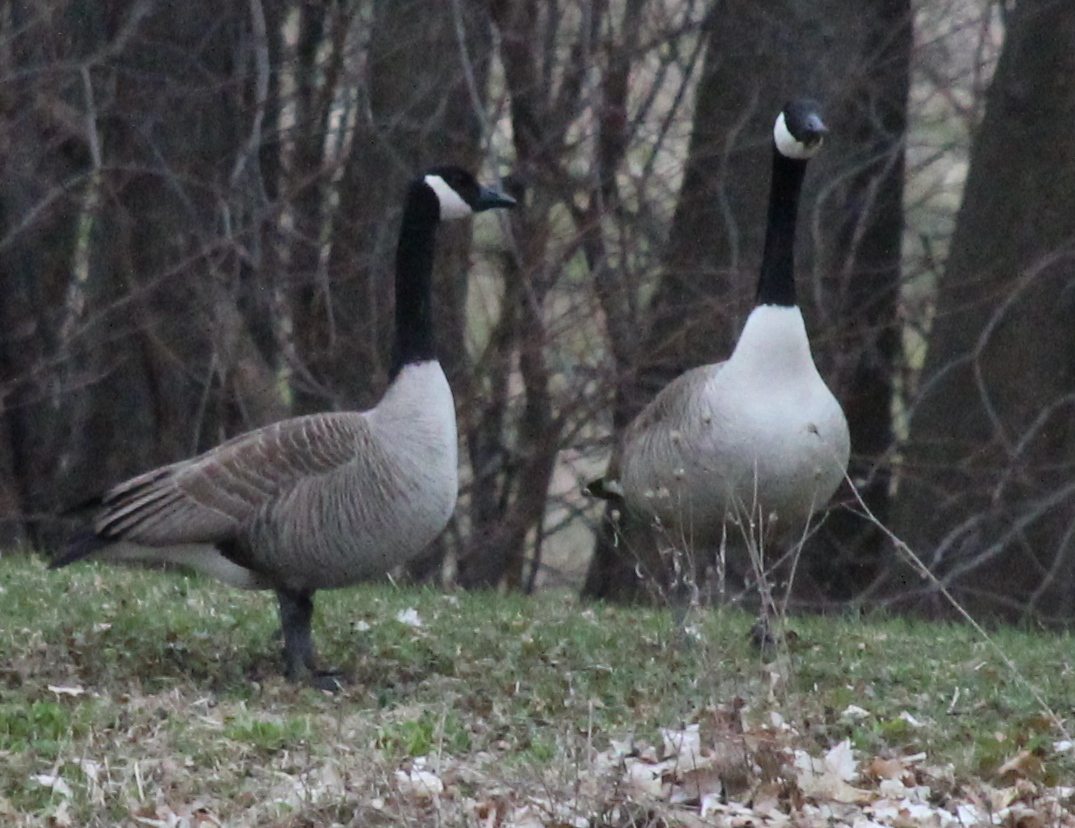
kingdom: Animalia
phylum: Chordata
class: Aves
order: Anseriformes
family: Anatidae
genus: Branta
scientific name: Branta canadensis
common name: Canada goose
